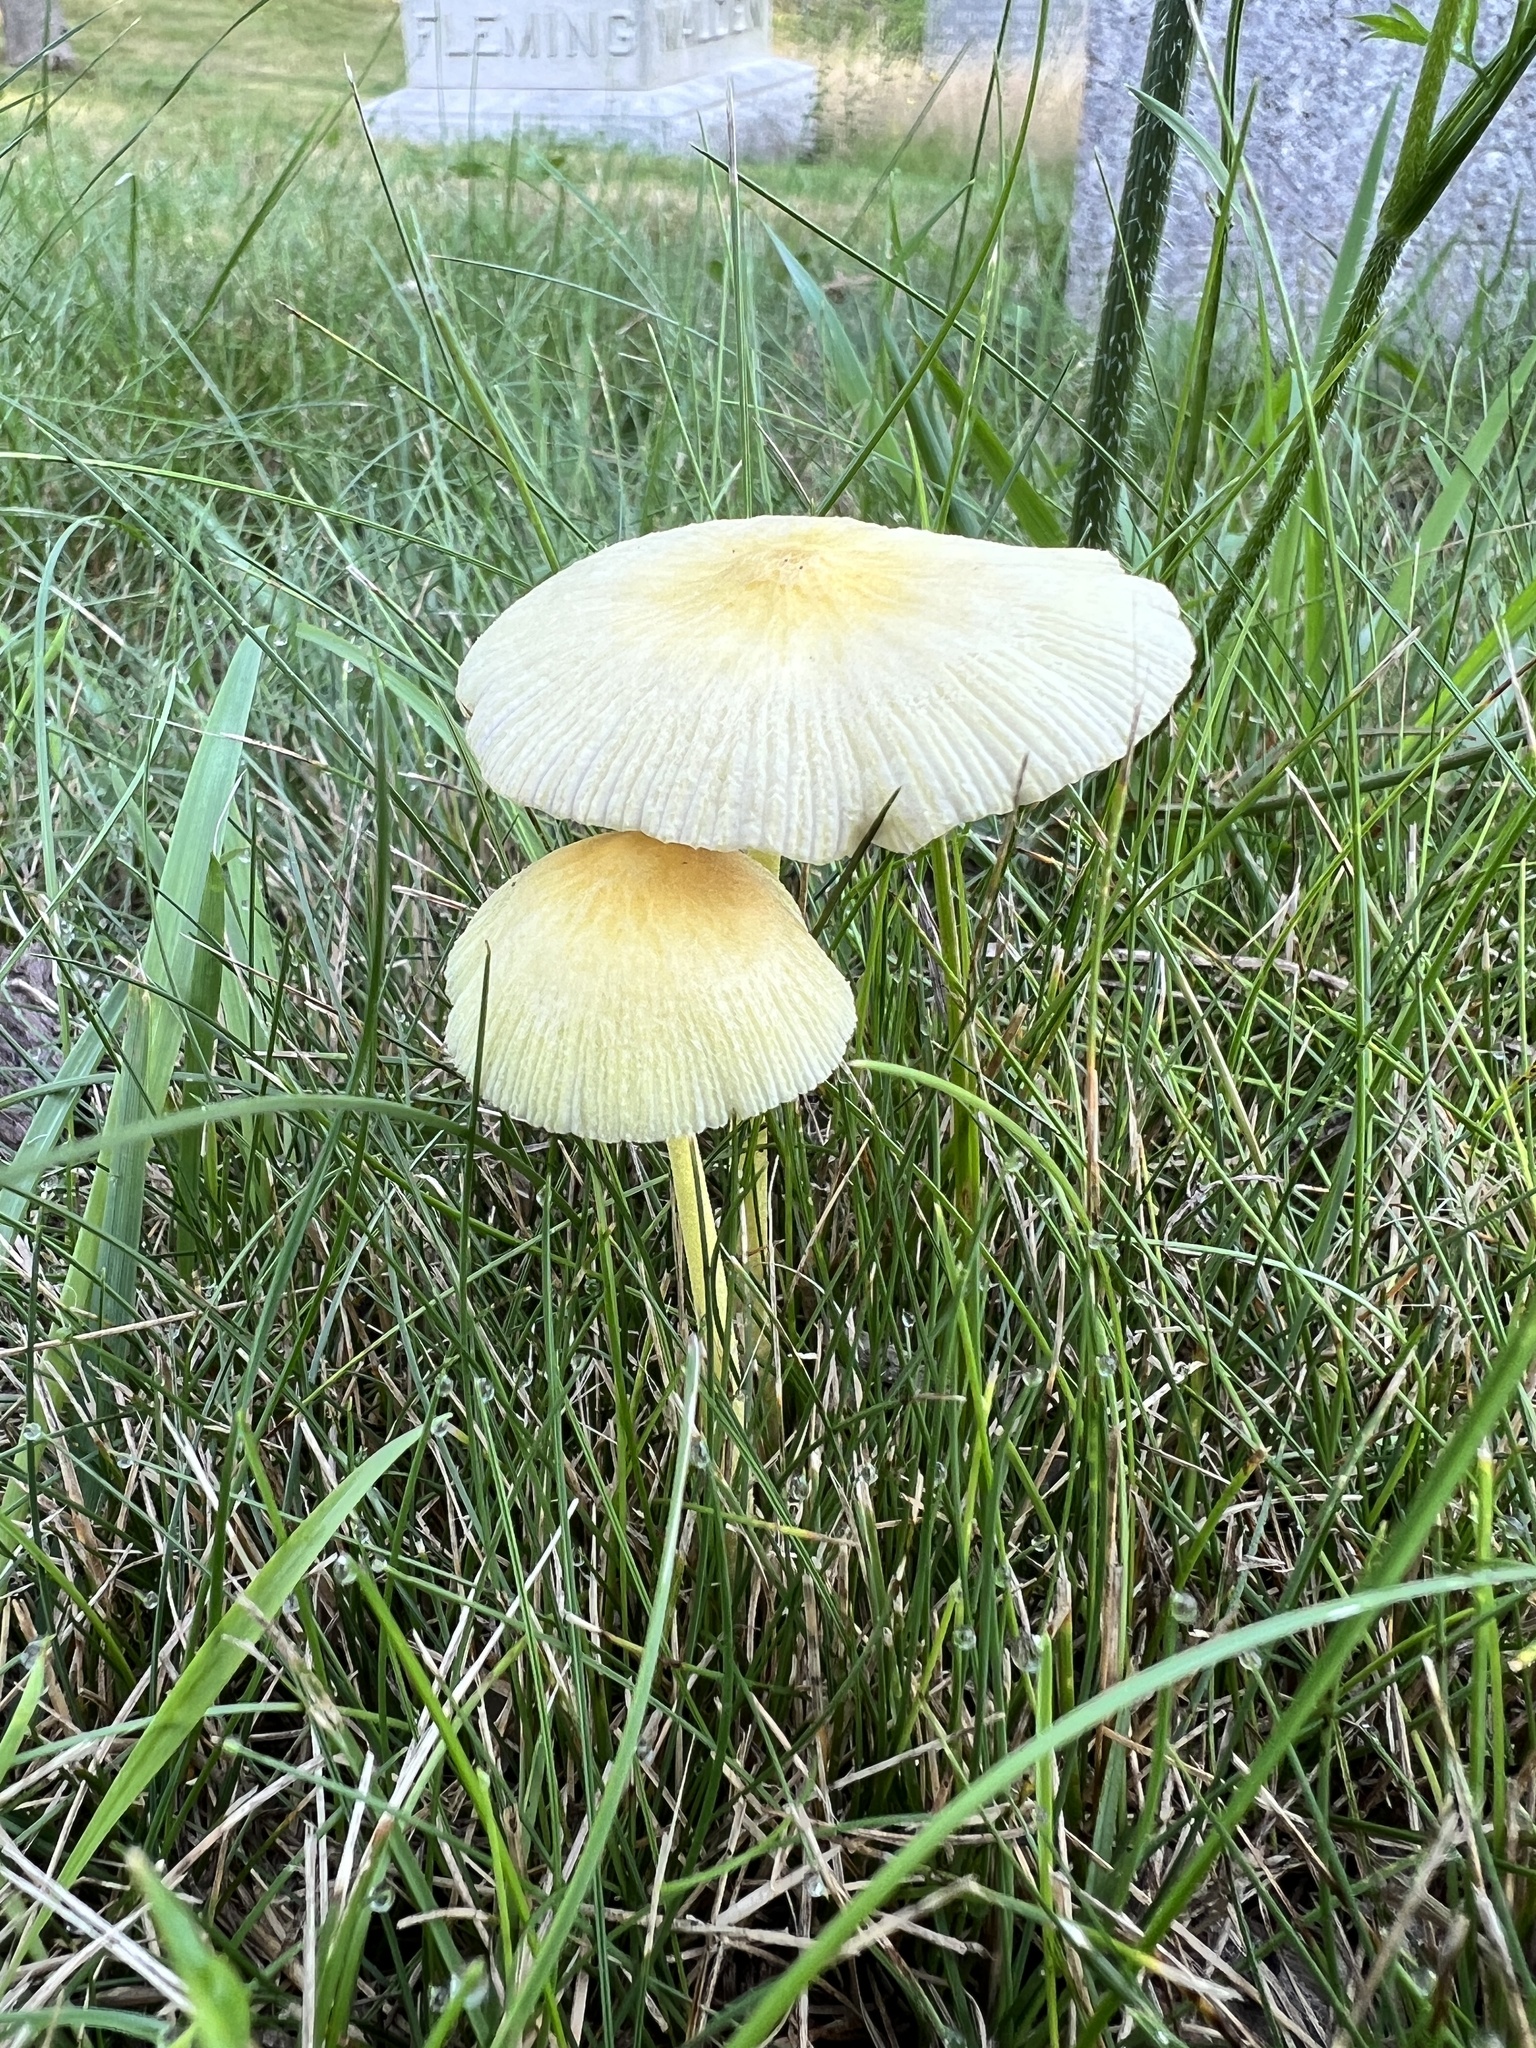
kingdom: Fungi
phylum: Basidiomycota
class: Agaricomycetes
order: Agaricales
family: Agaricaceae
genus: Leucocoprinus
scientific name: Leucocoprinus fragilissimus
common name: Fragile dapperling
